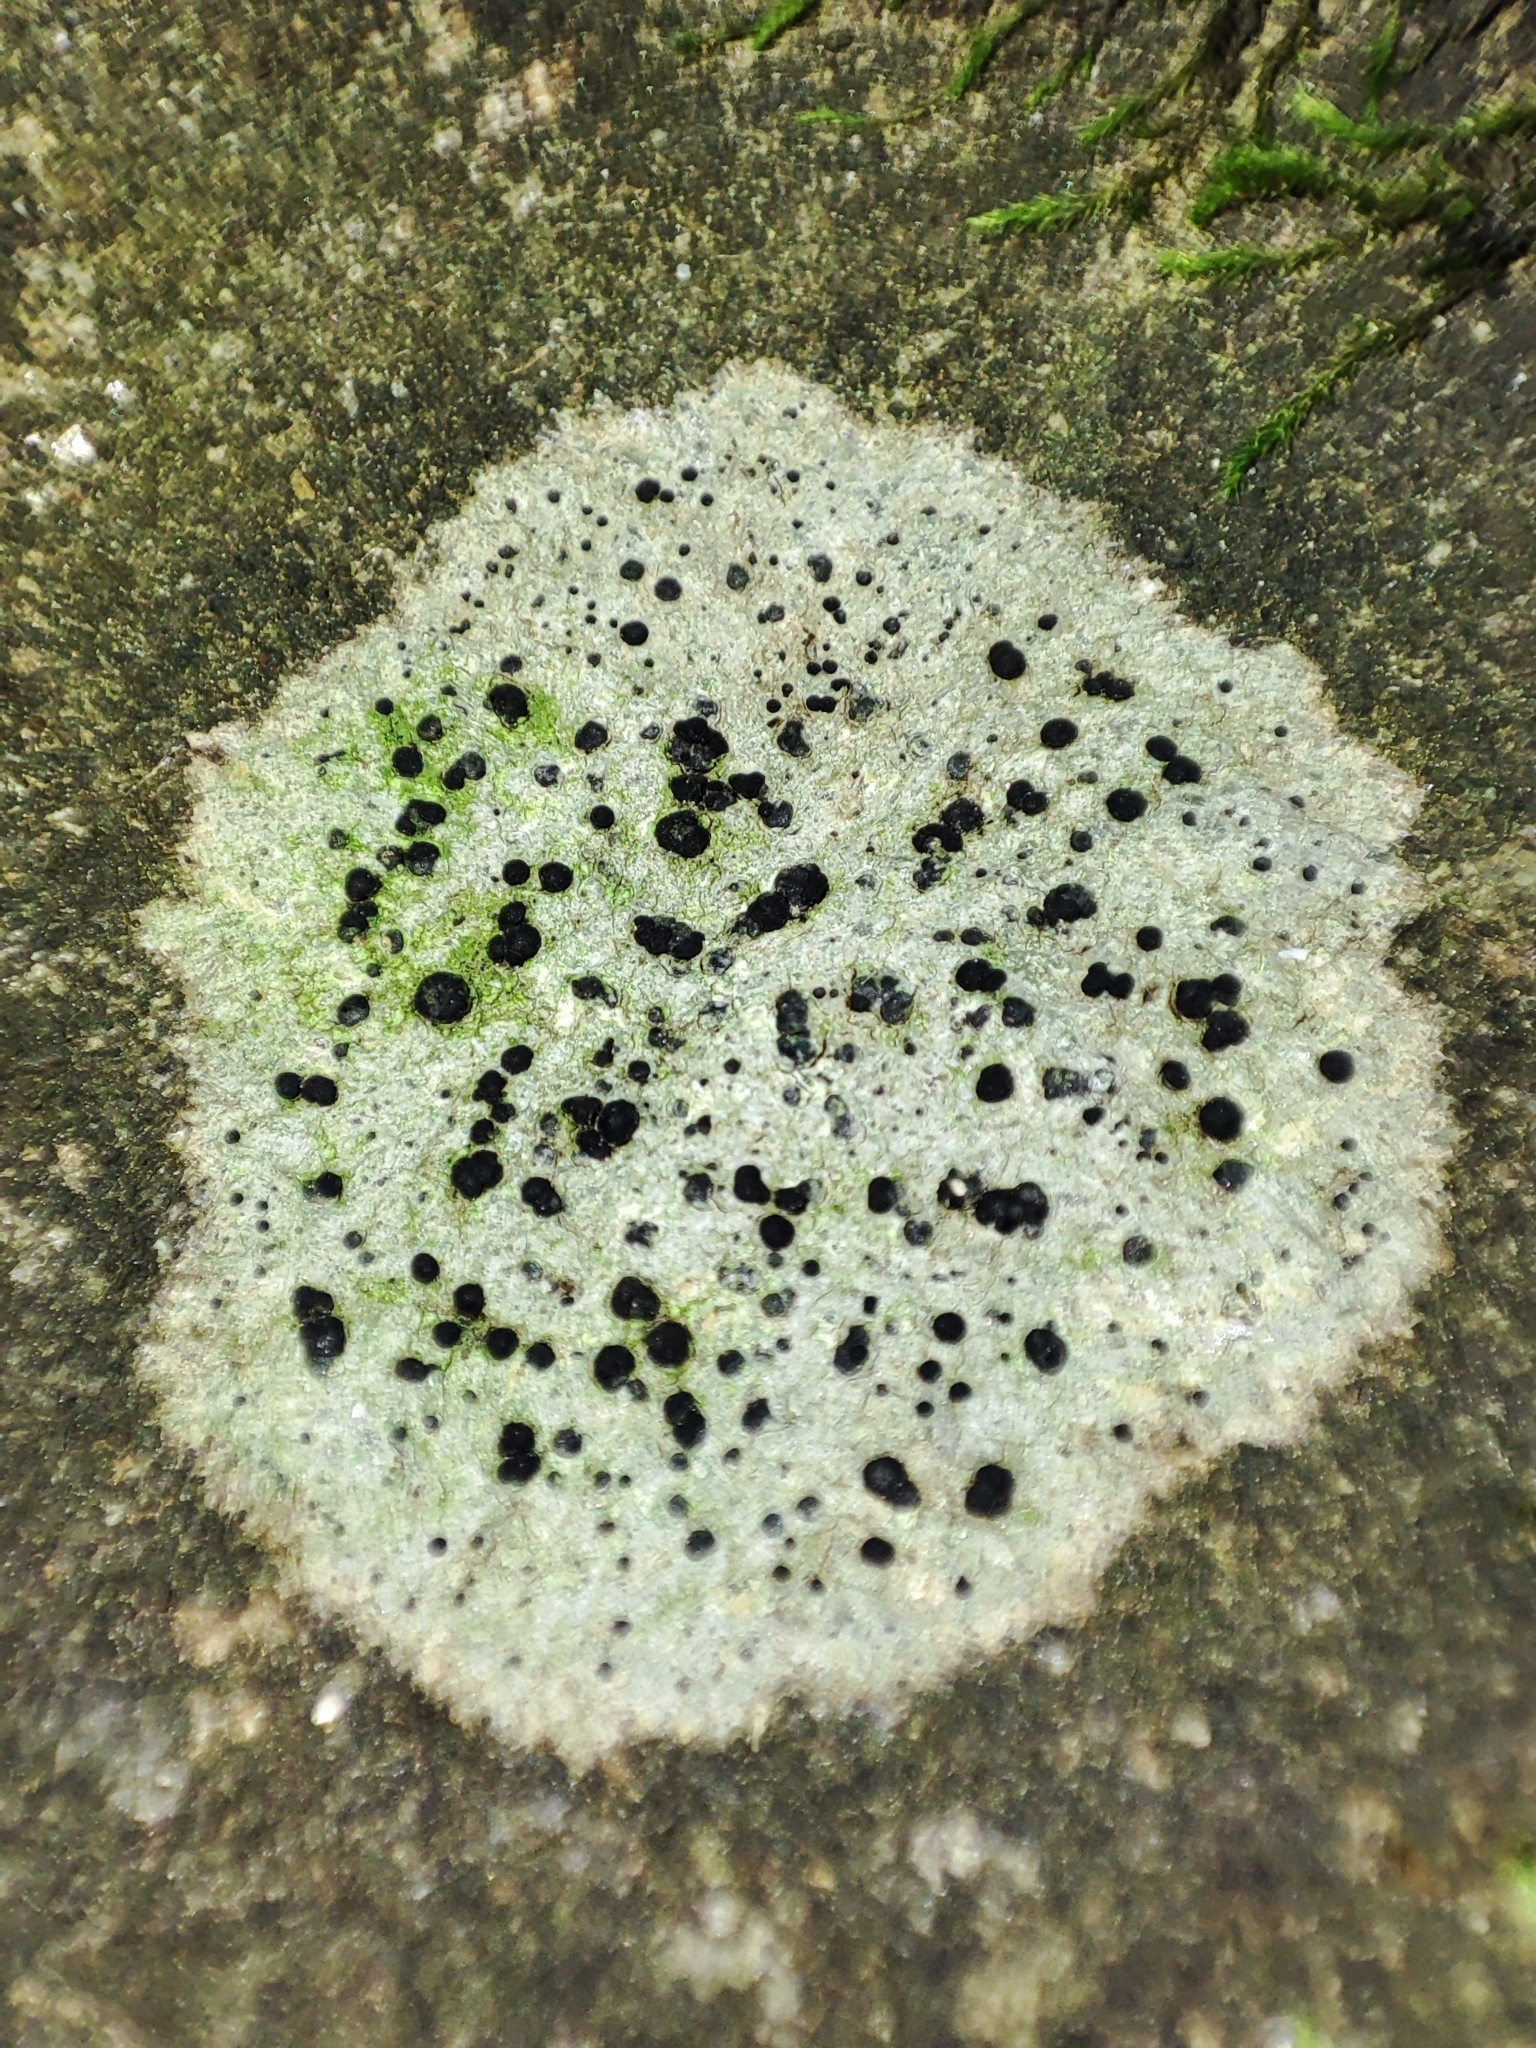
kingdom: Fungi
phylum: Ascomycota
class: Lecanoromycetes
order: Lecanorales
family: Lecanoraceae
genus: Lecidella
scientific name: Lecidella elaeochroma
